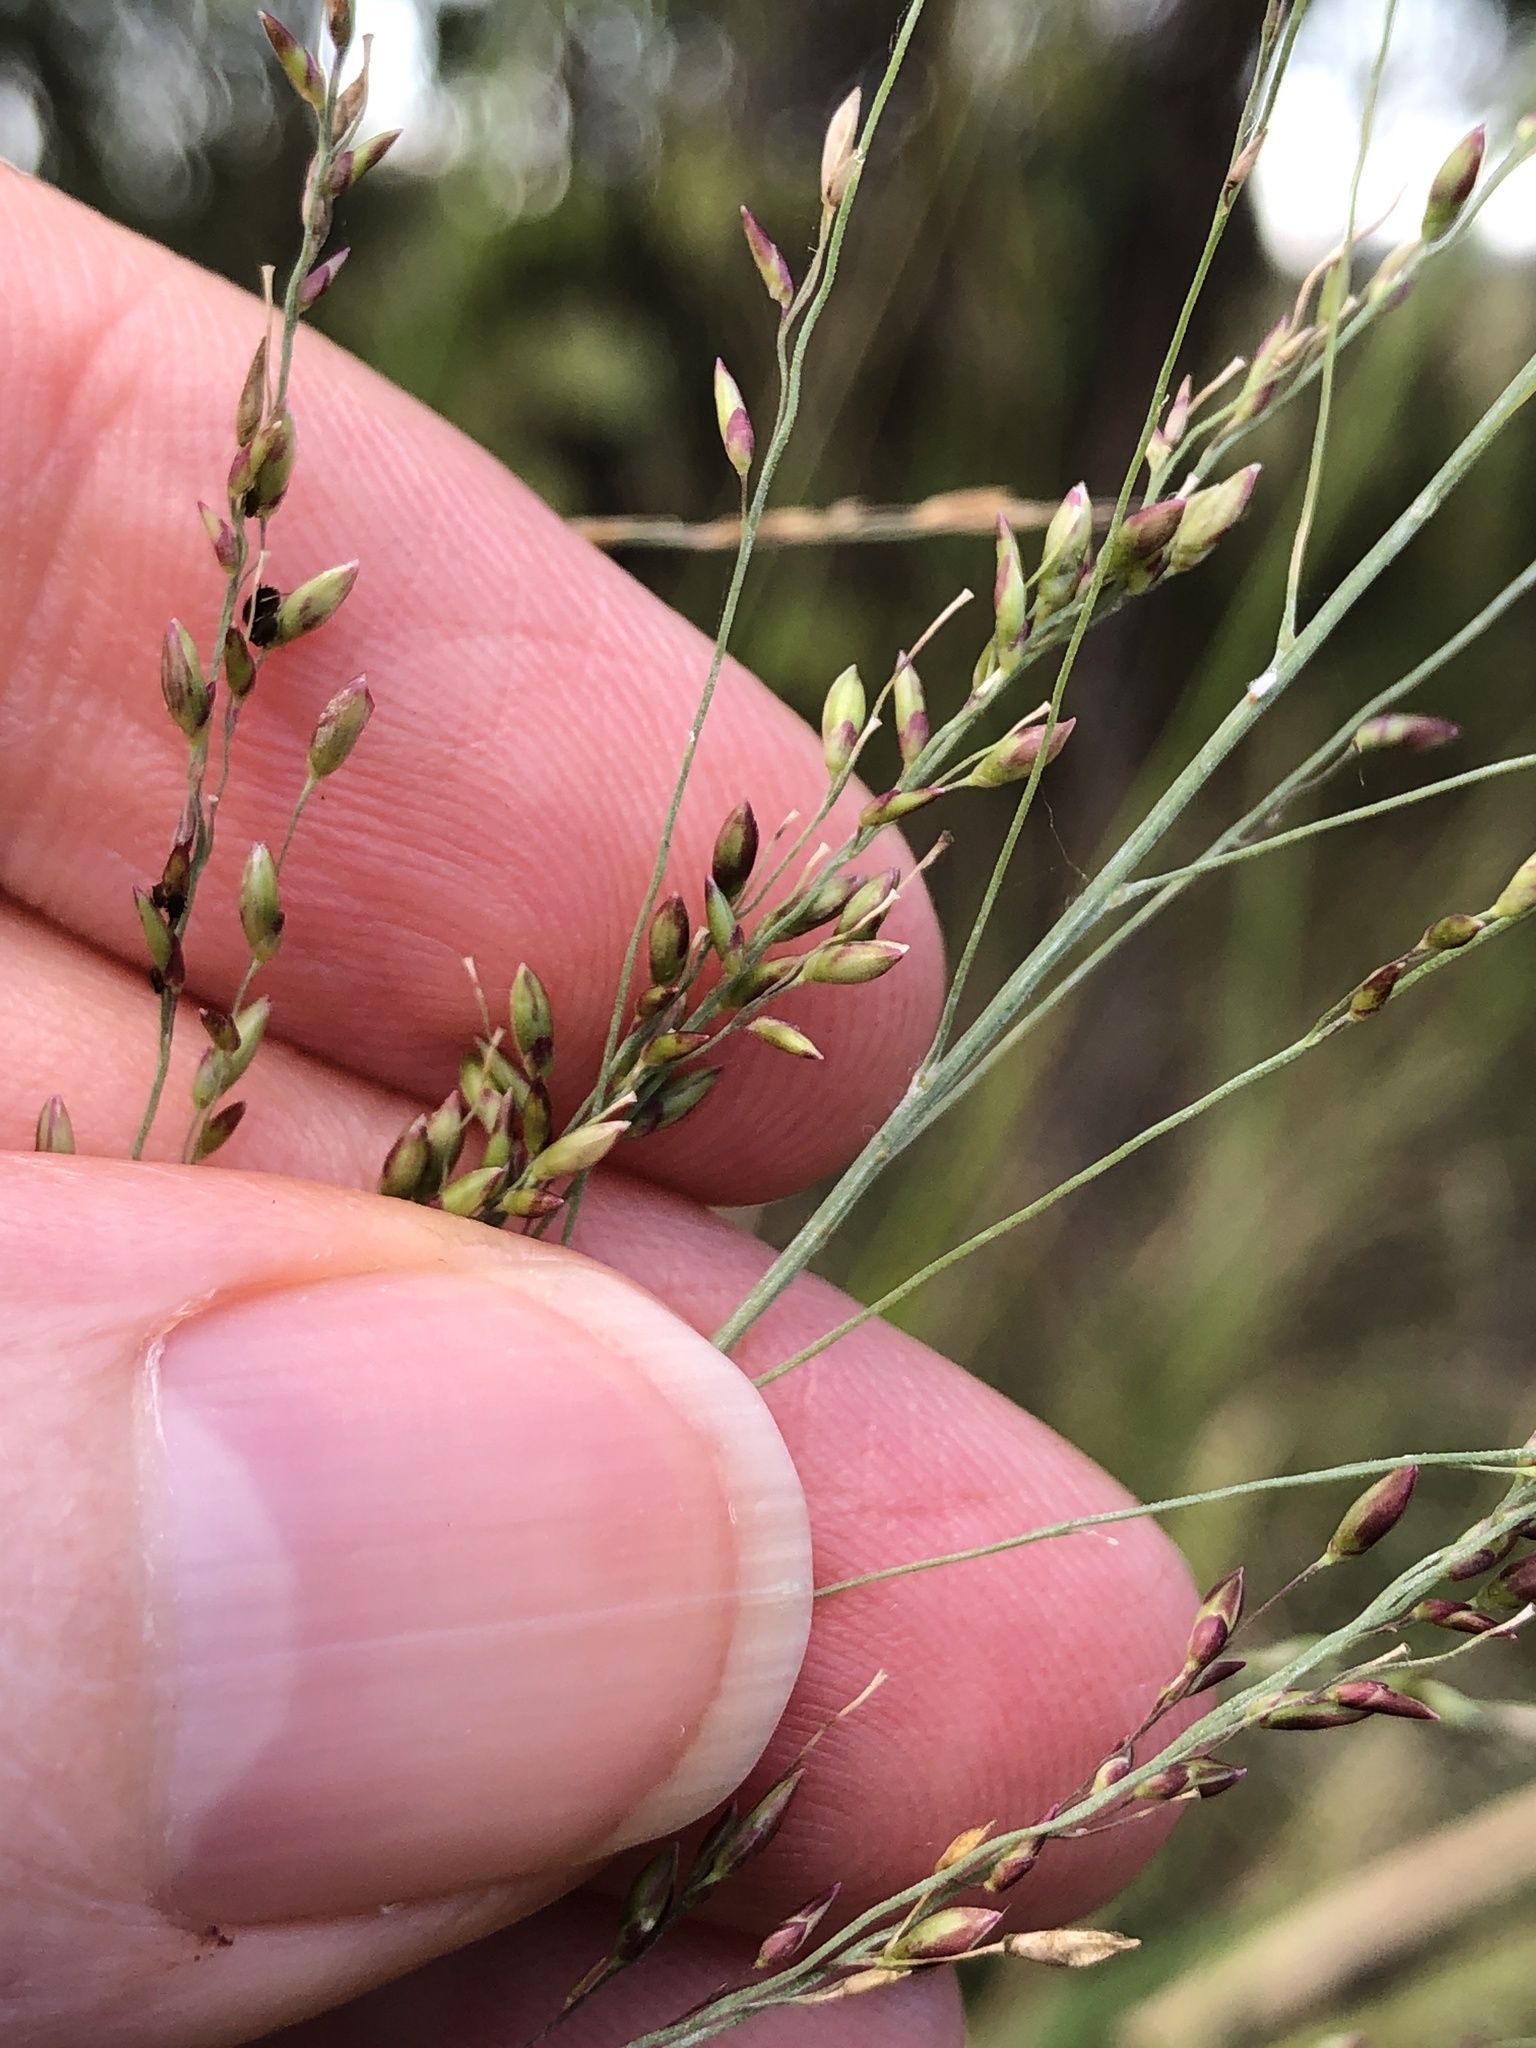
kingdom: Plantae
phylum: Tracheophyta
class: Liliopsida
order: Poales
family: Poaceae
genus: Megathyrsus
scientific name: Megathyrsus maximus
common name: Guineagrass
